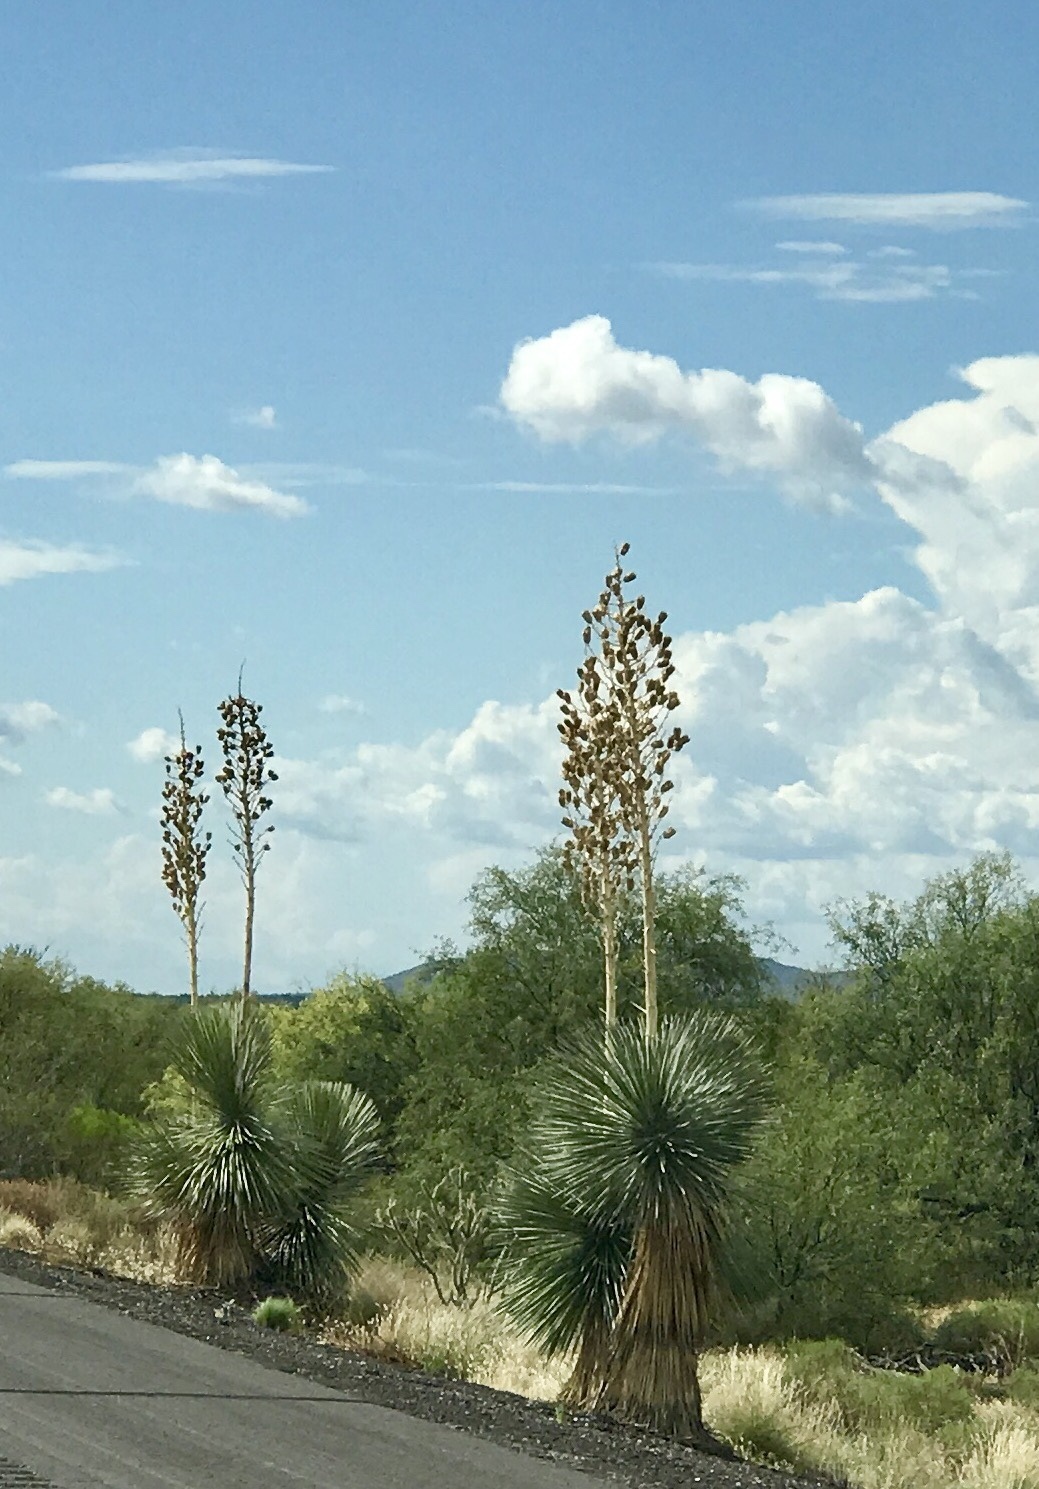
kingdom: Plantae
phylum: Tracheophyta
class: Liliopsida
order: Asparagales
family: Asparagaceae
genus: Yucca
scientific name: Yucca elata
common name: Palmella
